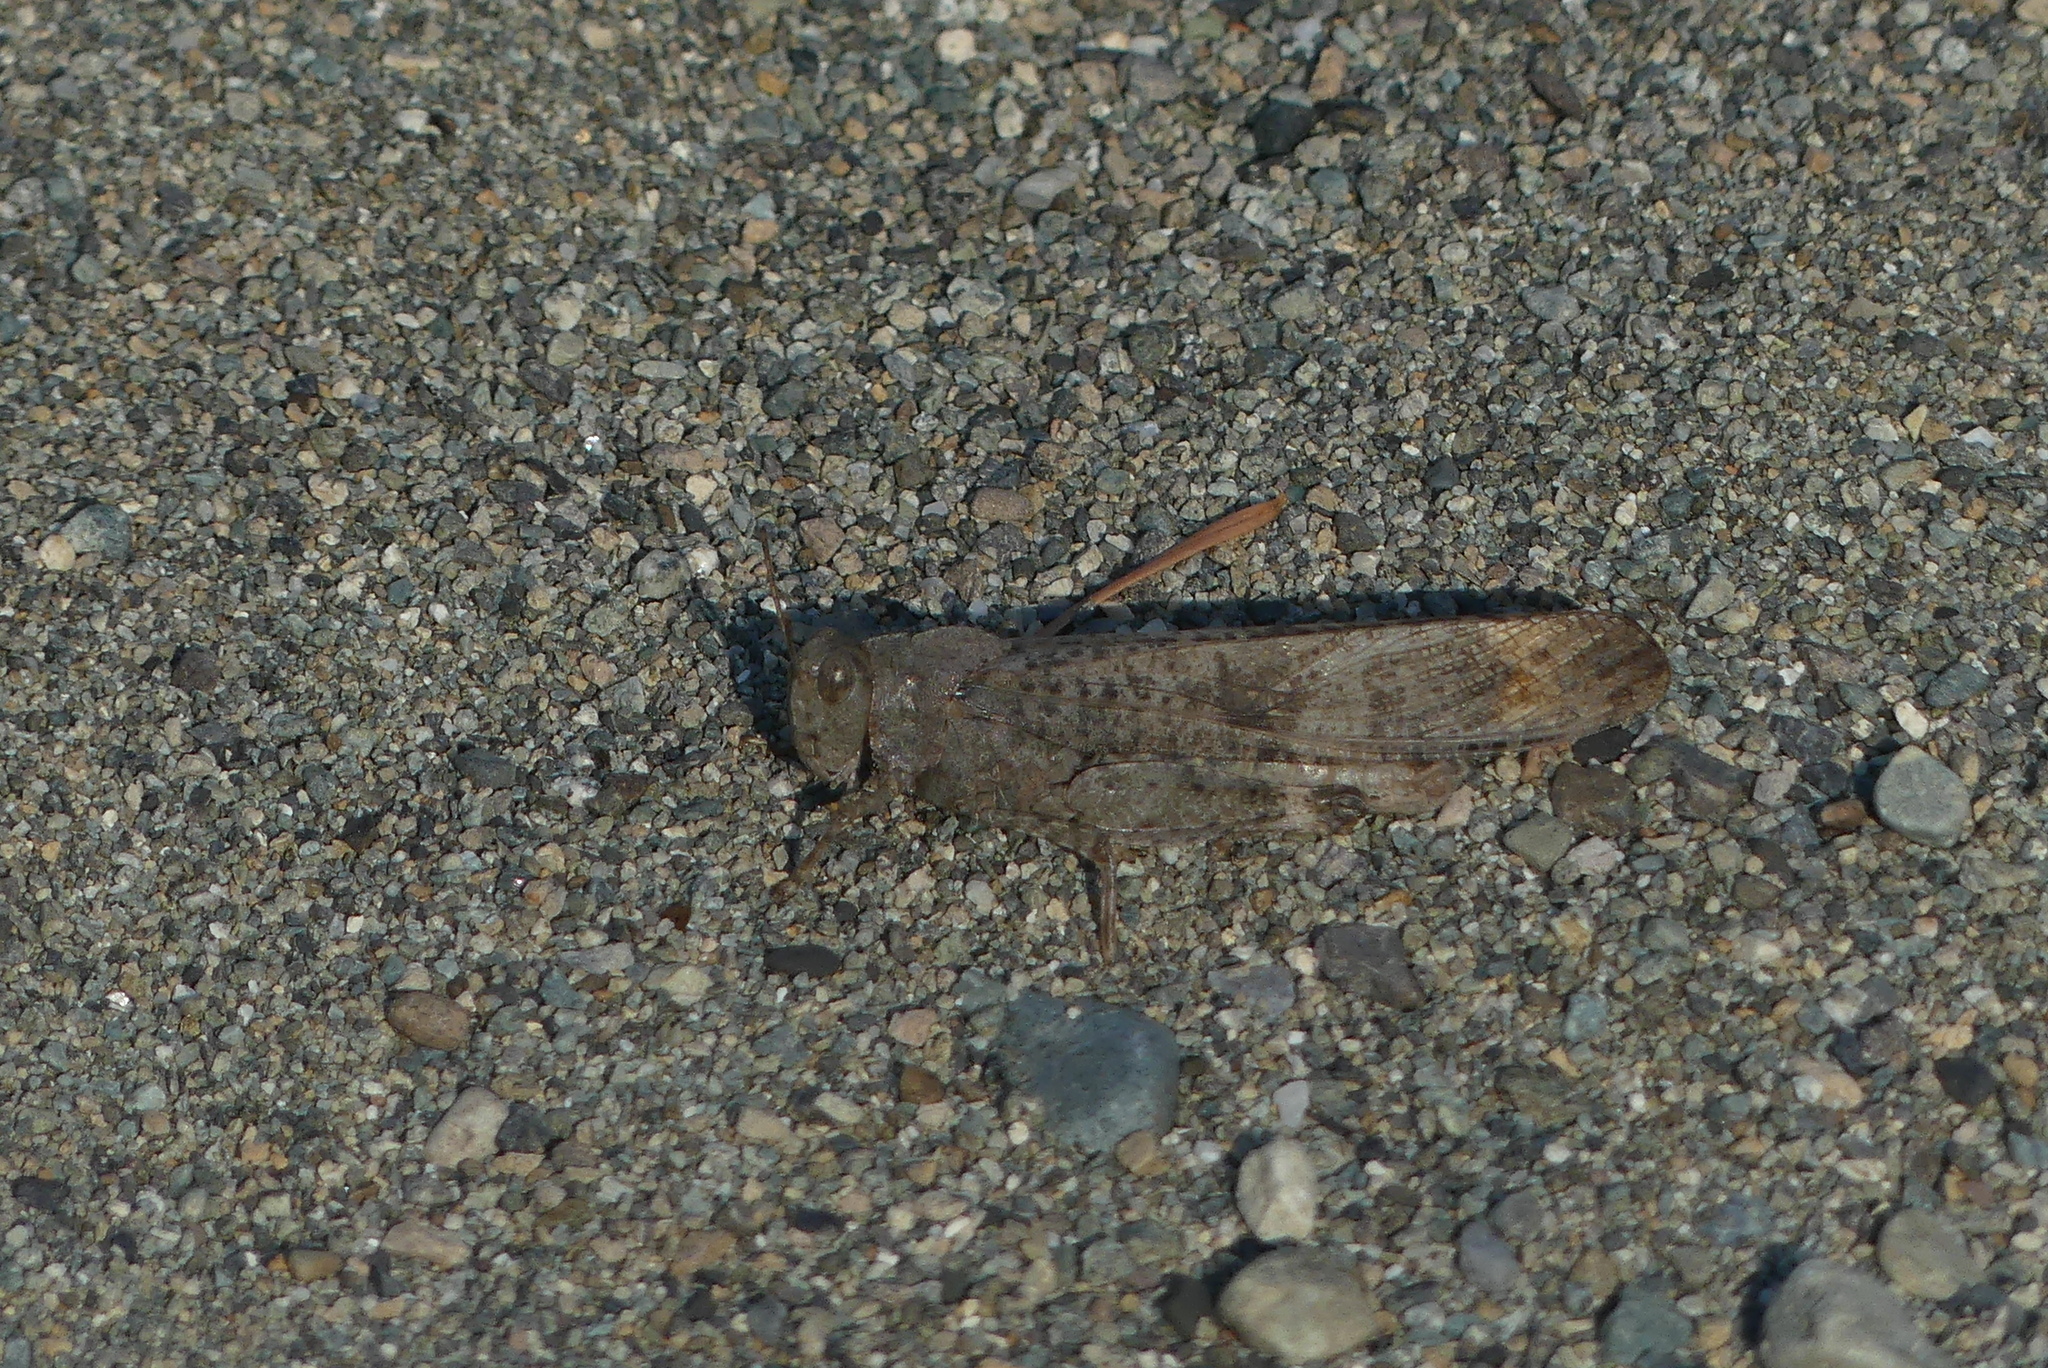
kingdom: Animalia
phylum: Arthropoda
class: Insecta
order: Orthoptera
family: Acrididae
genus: Dissosteira
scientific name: Dissosteira carolina
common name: Carolina grasshopper
